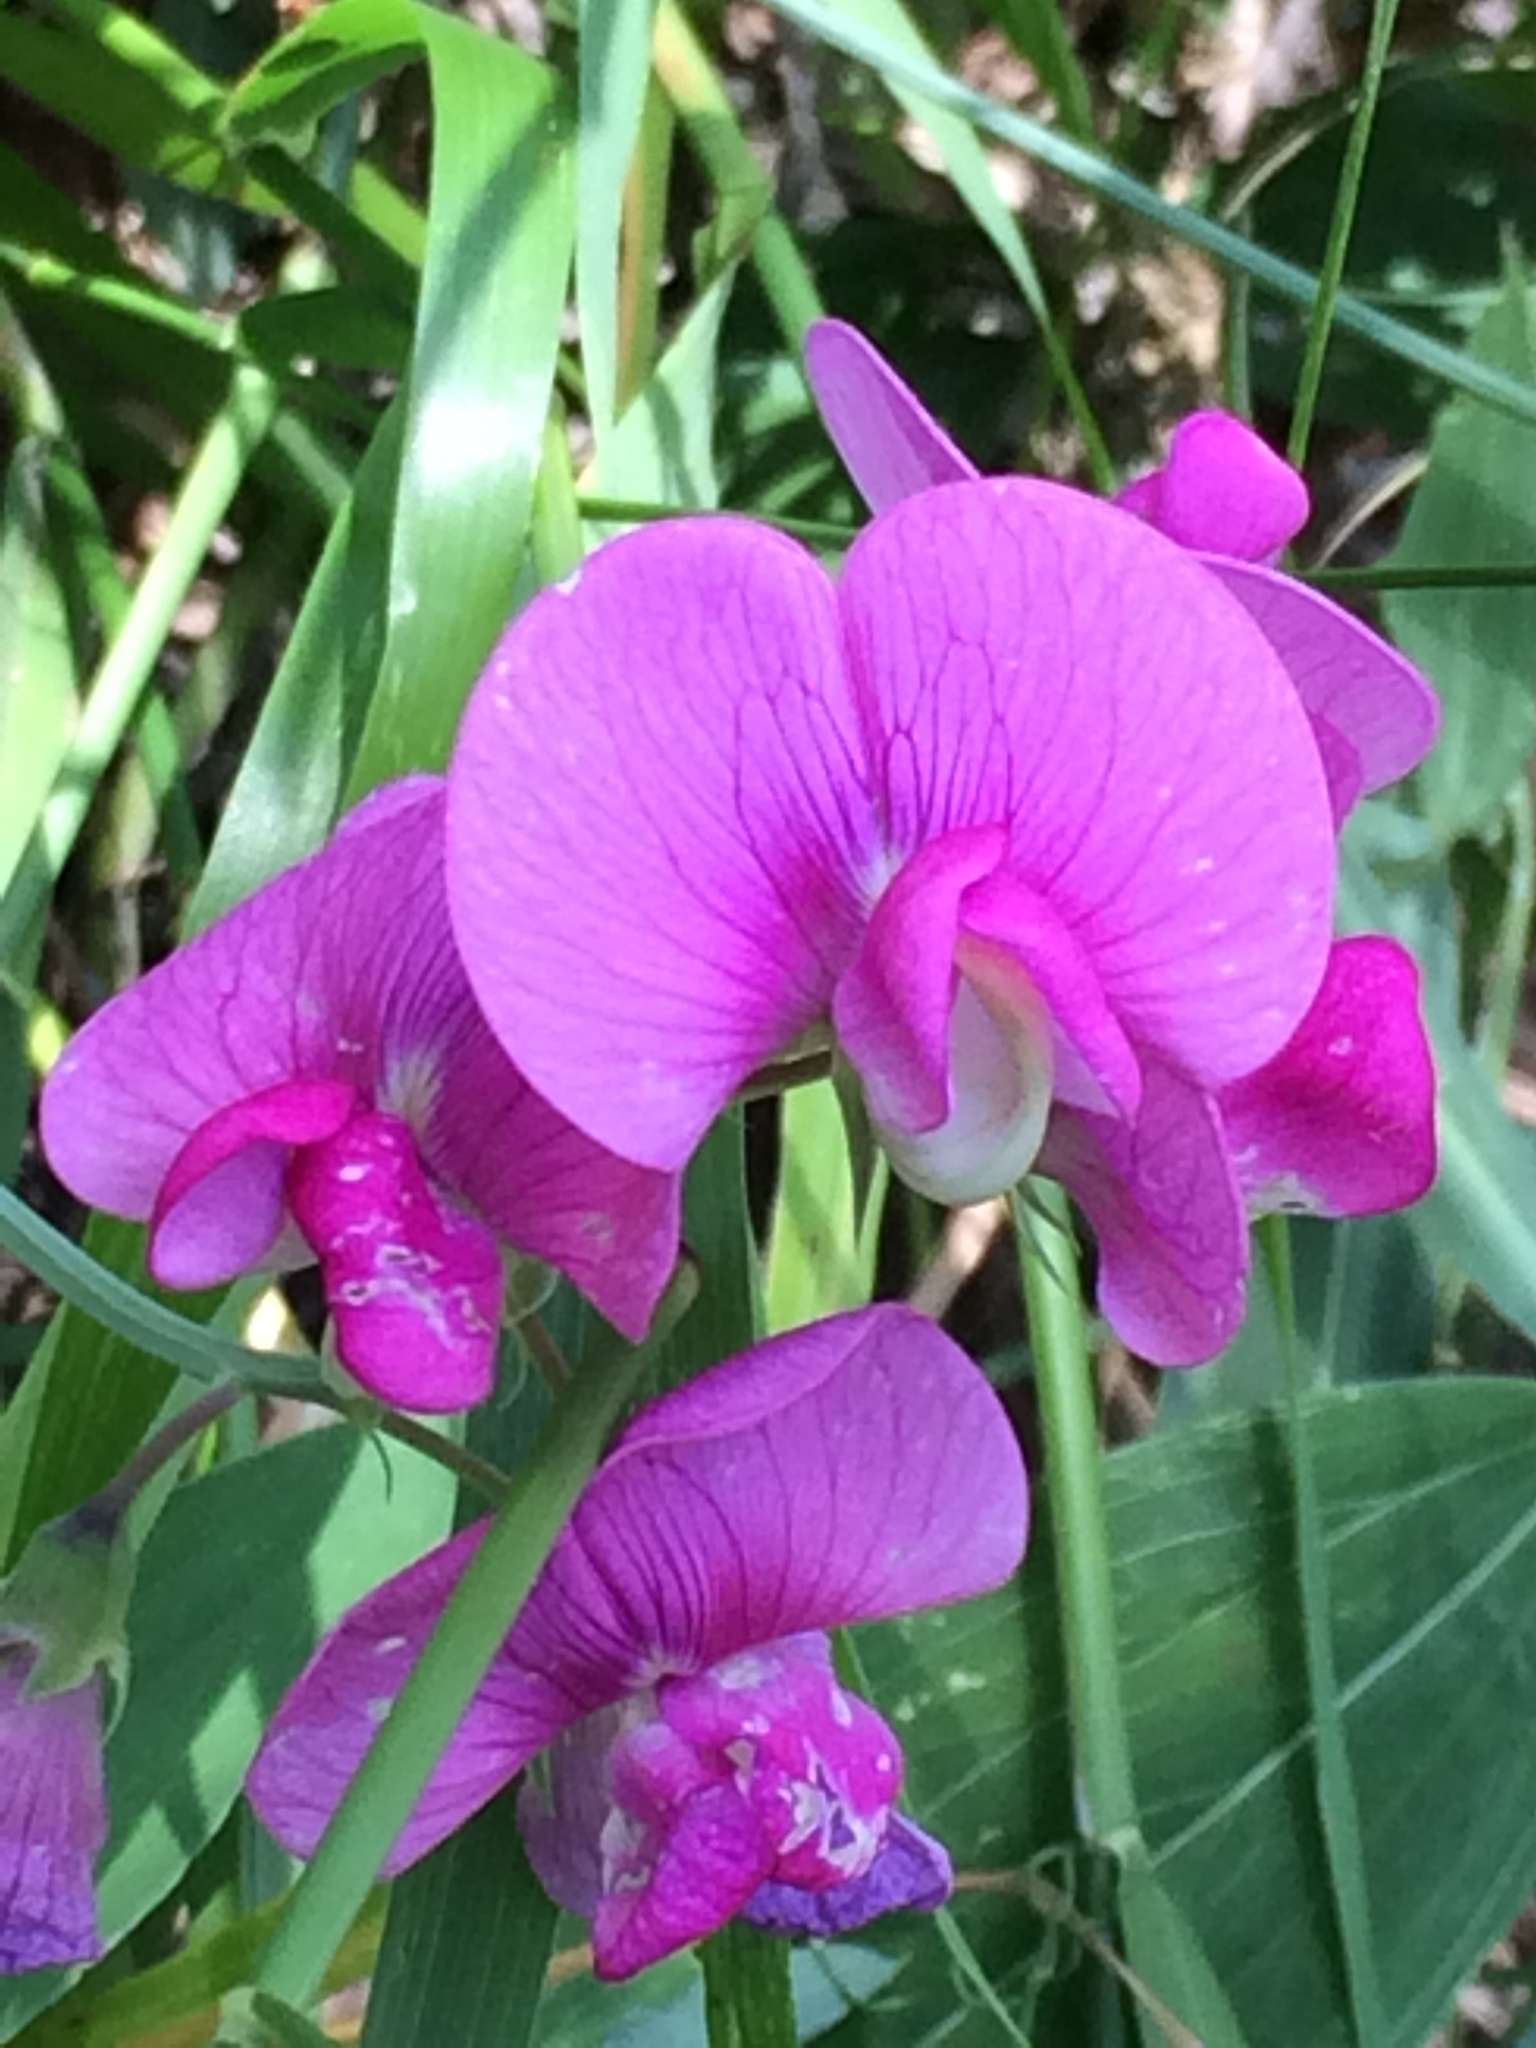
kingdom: Plantae
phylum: Tracheophyta
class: Magnoliopsida
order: Fabales
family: Fabaceae
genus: Lathyrus
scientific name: Lathyrus latifolius
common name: Perennial pea
